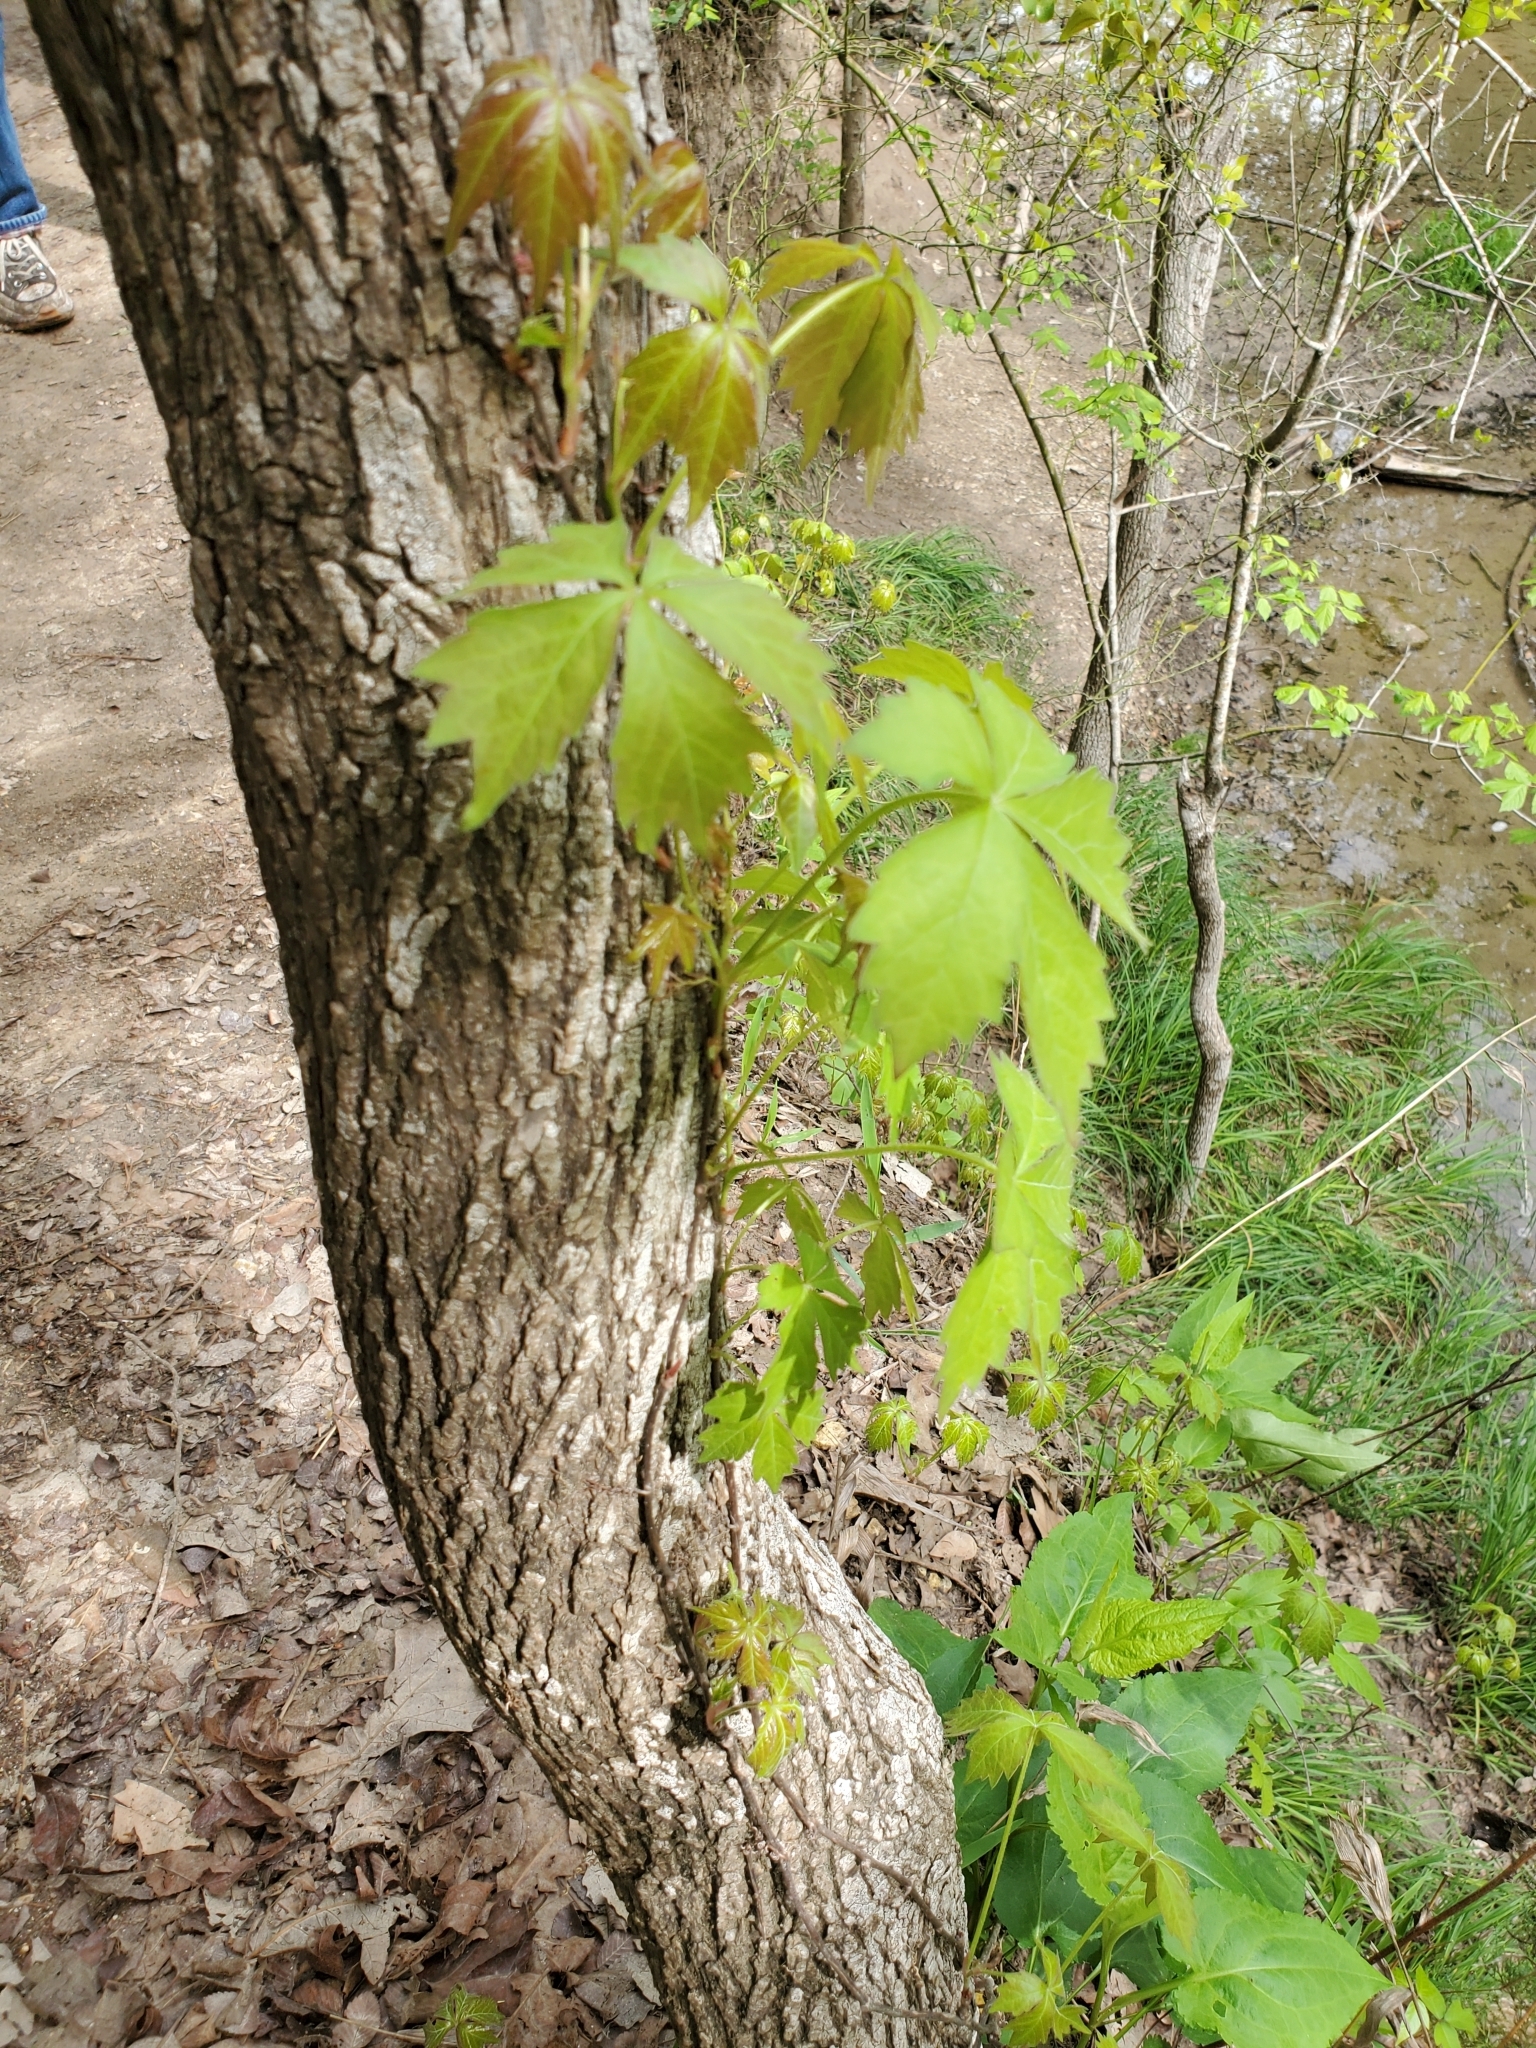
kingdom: Plantae
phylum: Tracheophyta
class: Magnoliopsida
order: Vitales
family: Vitaceae
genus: Parthenocissus
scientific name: Parthenocissus quinquefolia
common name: Virginia-creeper
